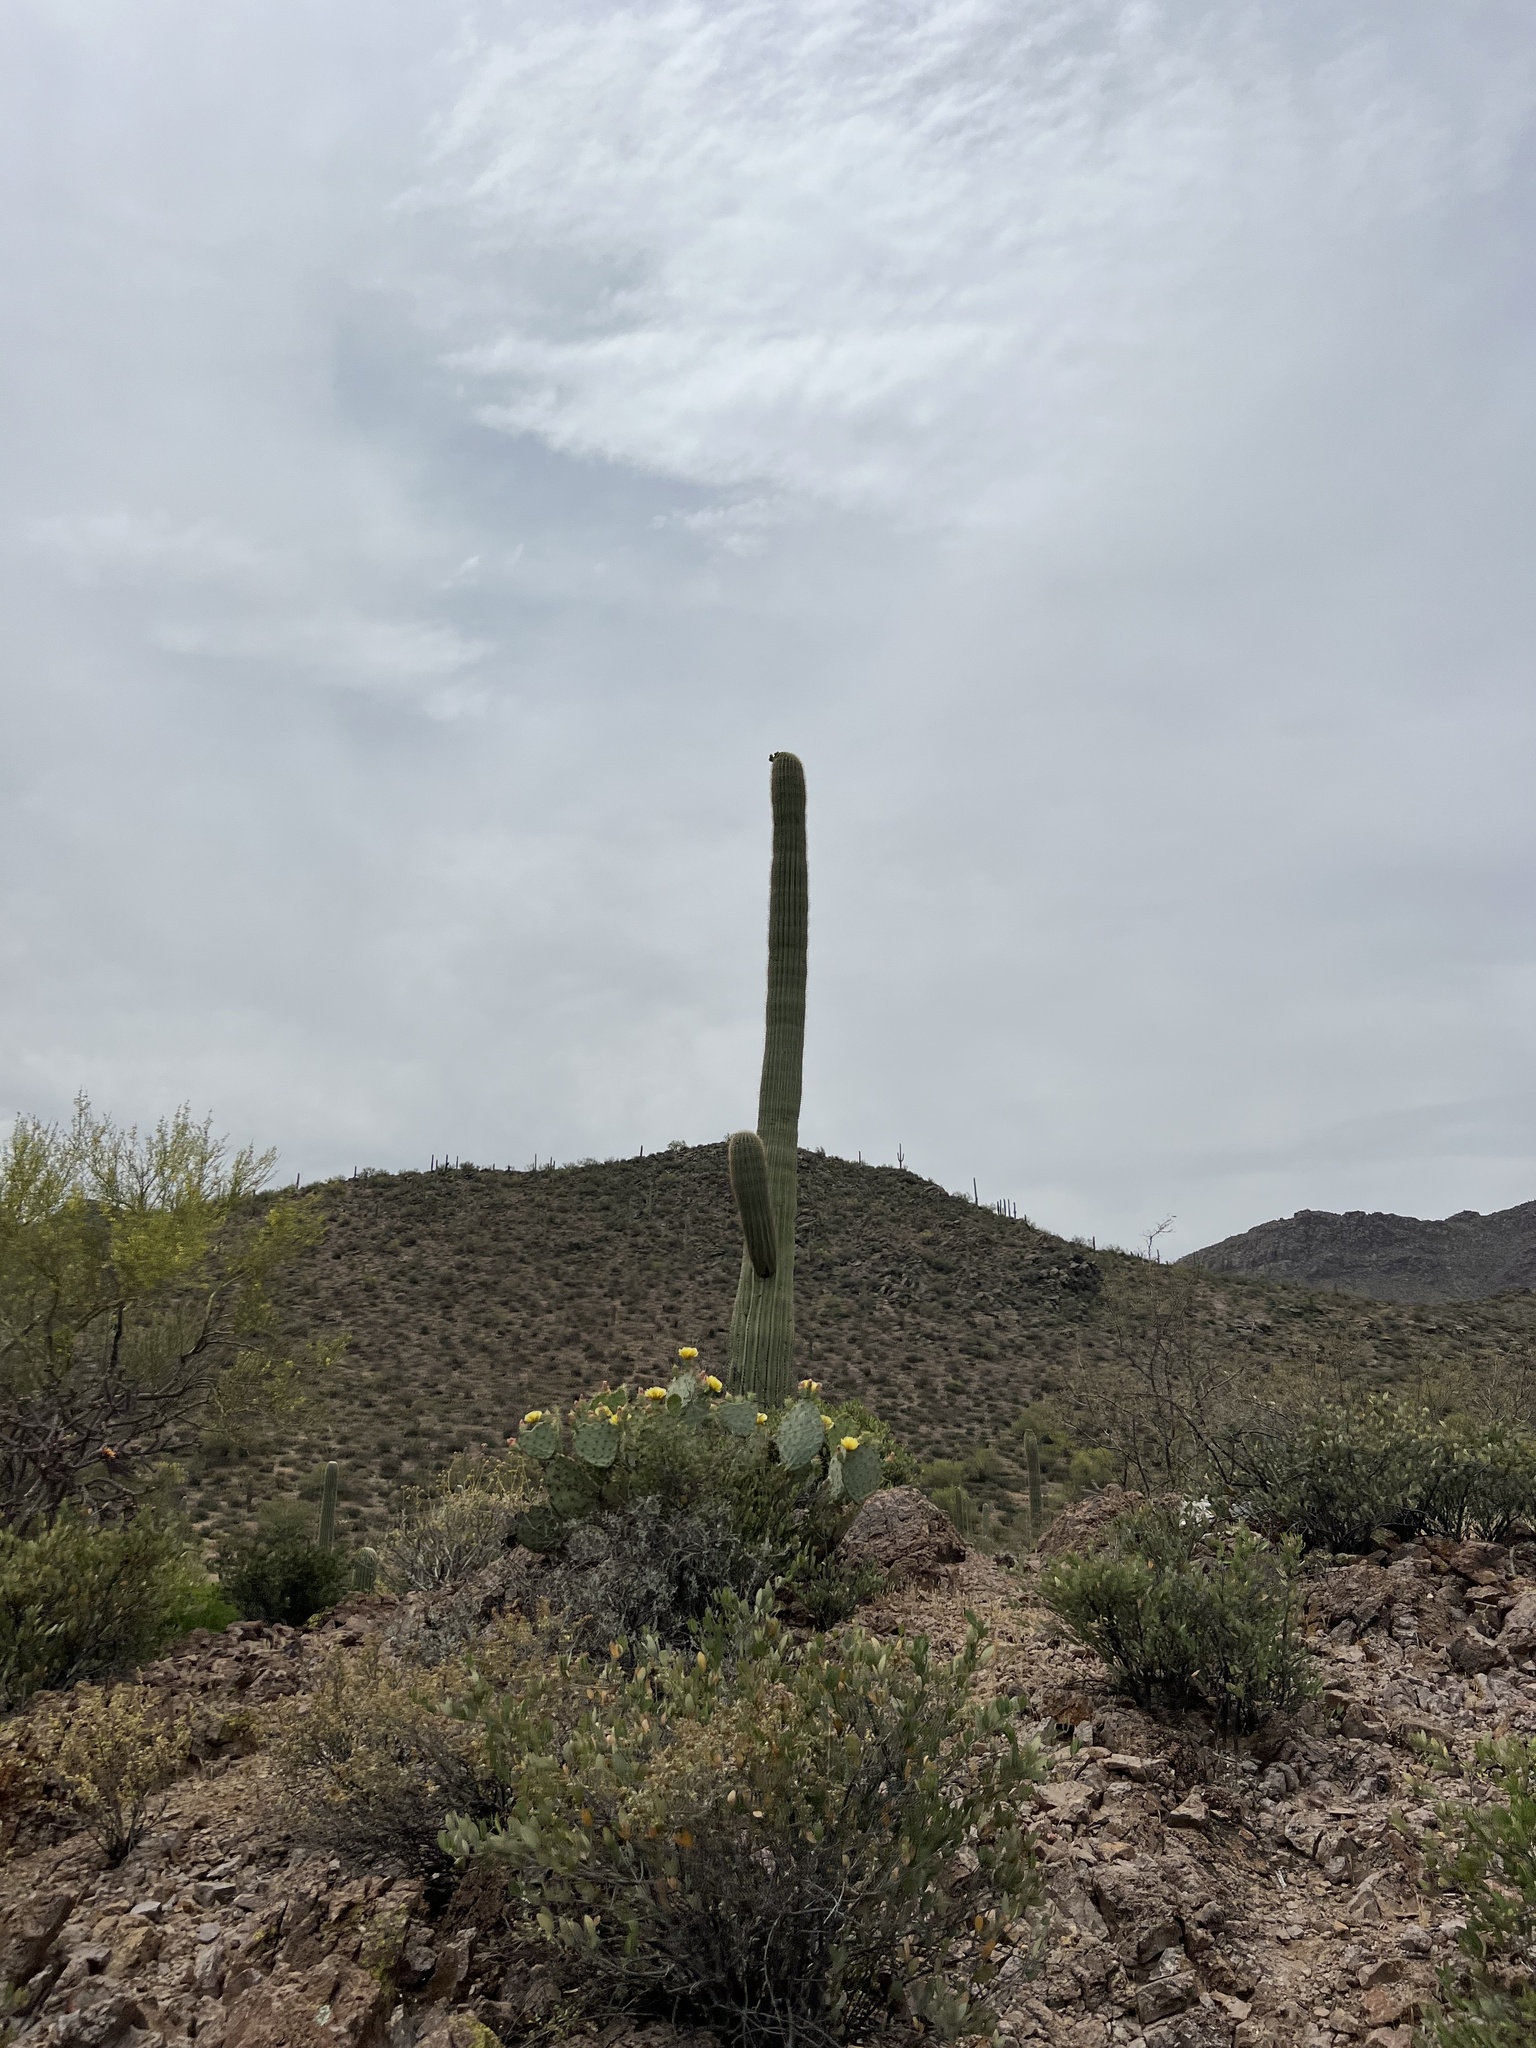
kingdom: Plantae
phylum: Tracheophyta
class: Magnoliopsida
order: Caryophyllales
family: Cactaceae
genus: Carnegiea
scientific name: Carnegiea gigantea
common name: Saguaro
